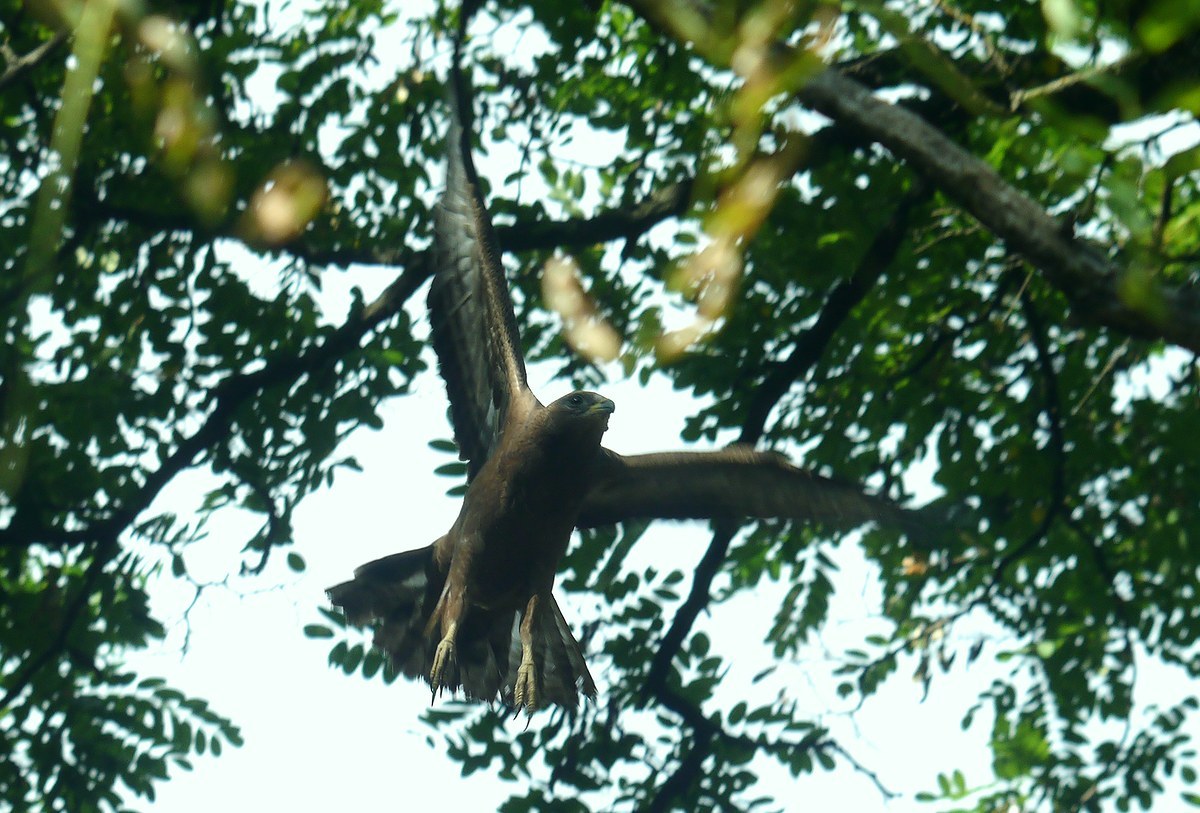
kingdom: Animalia
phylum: Chordata
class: Aves
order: Accipitriformes
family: Accipitridae
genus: Pernis
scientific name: Pernis apivorus
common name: European honey buzzard
